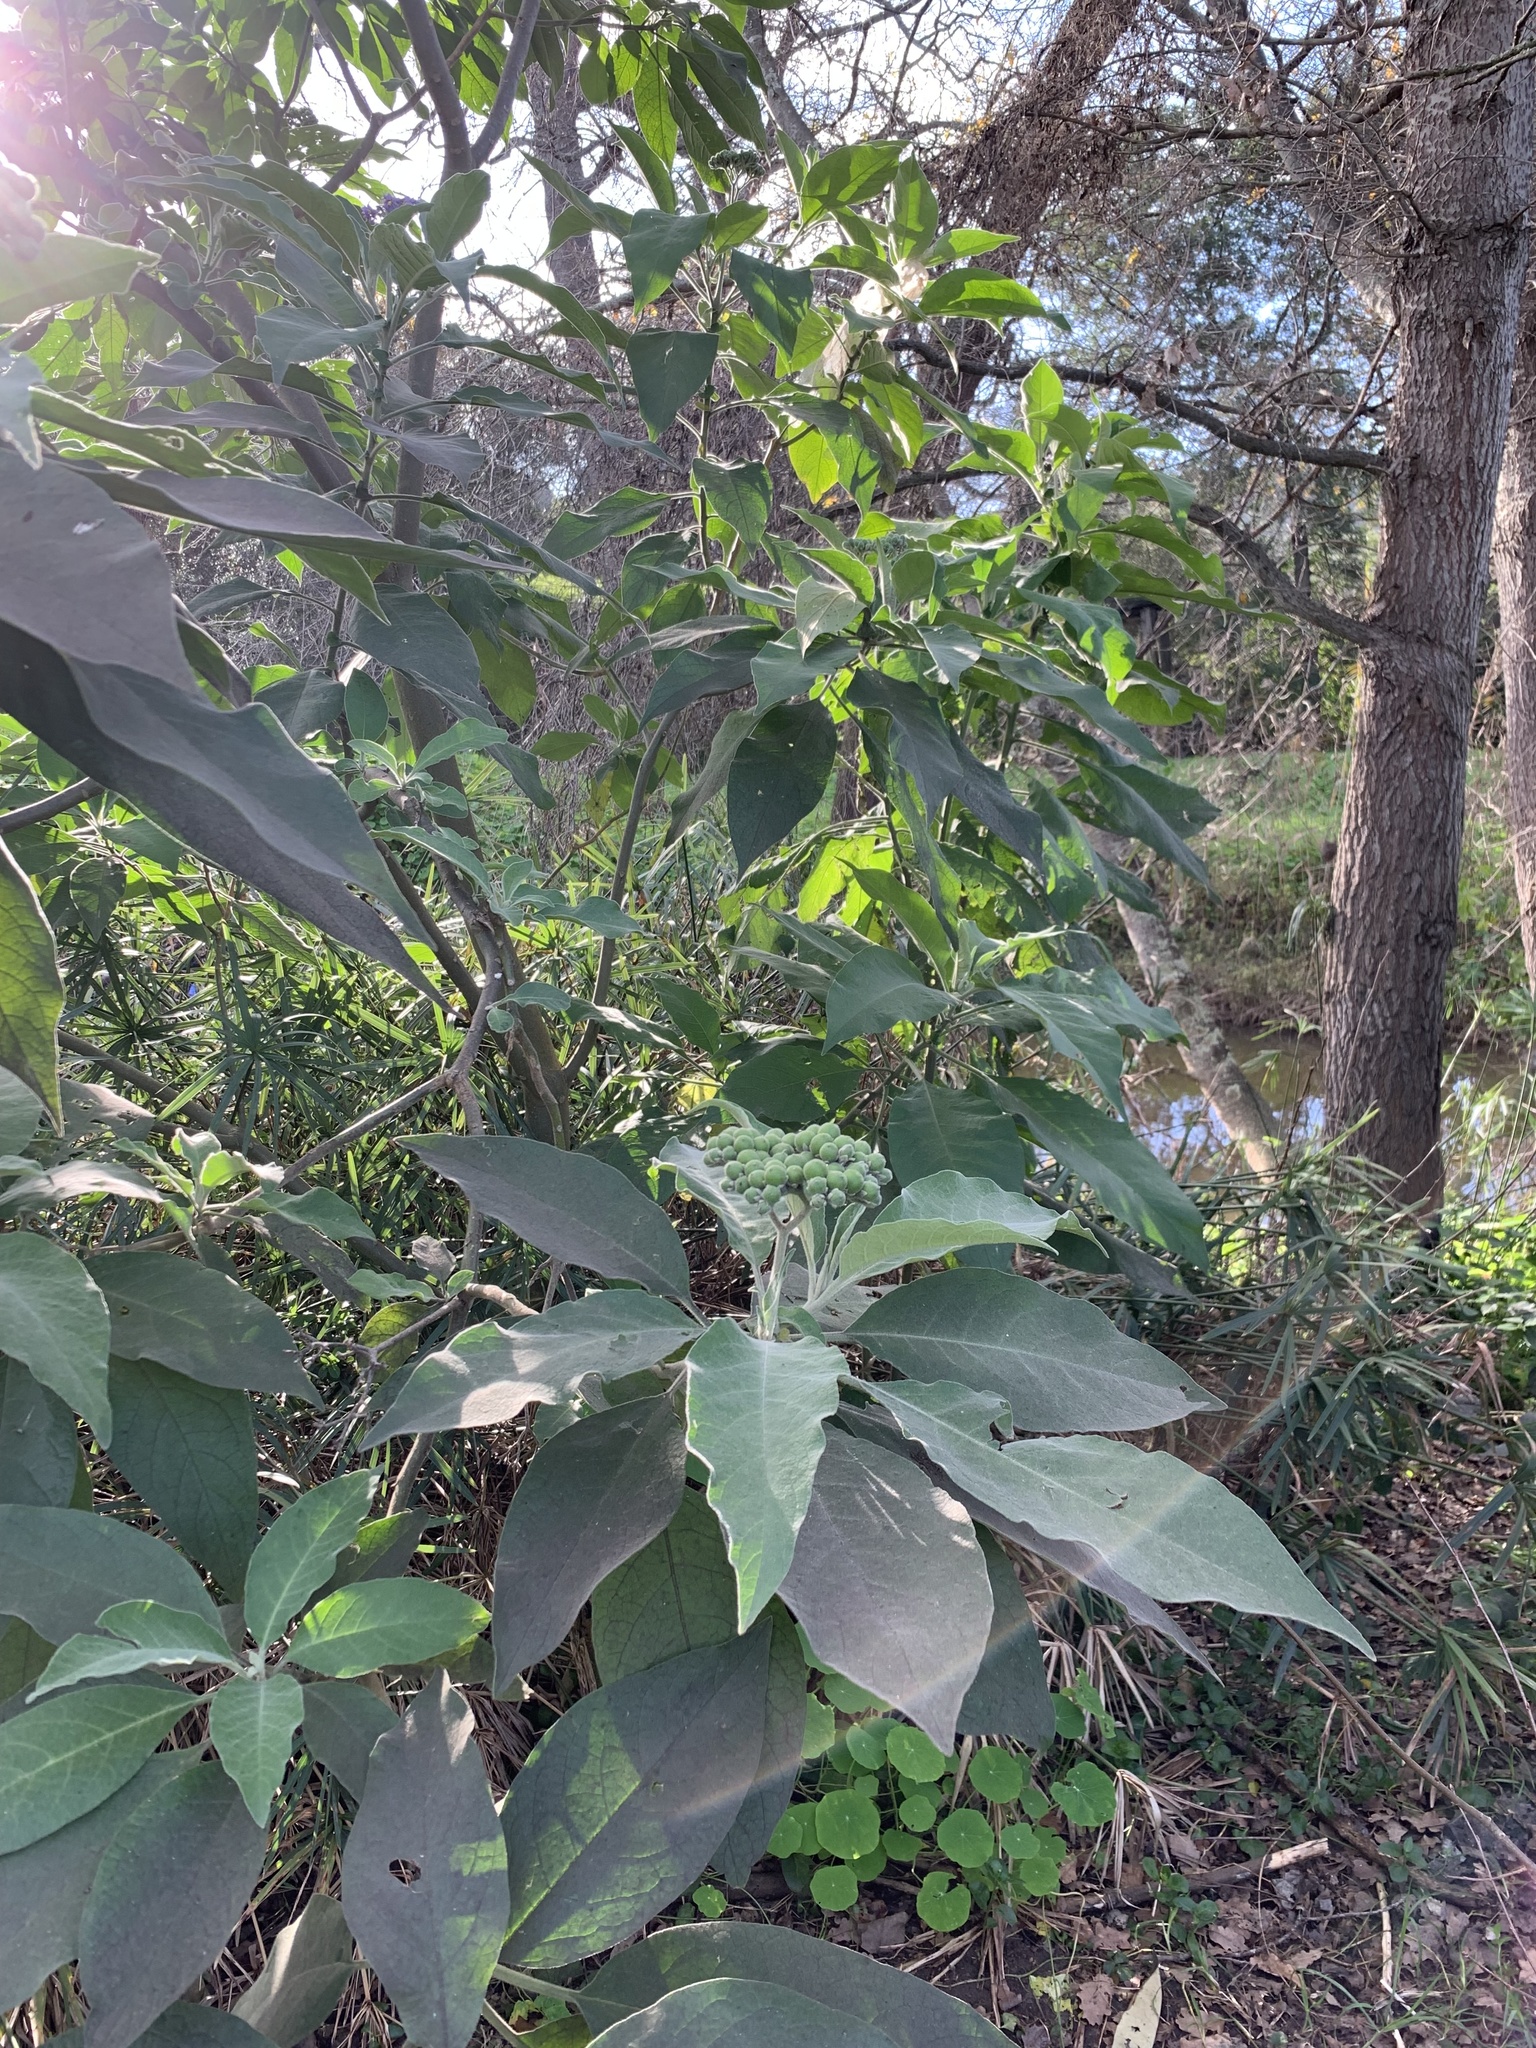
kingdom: Plantae
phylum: Tracheophyta
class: Magnoliopsida
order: Solanales
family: Solanaceae
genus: Solanum
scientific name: Solanum mauritianum
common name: Earleaf nightshade
